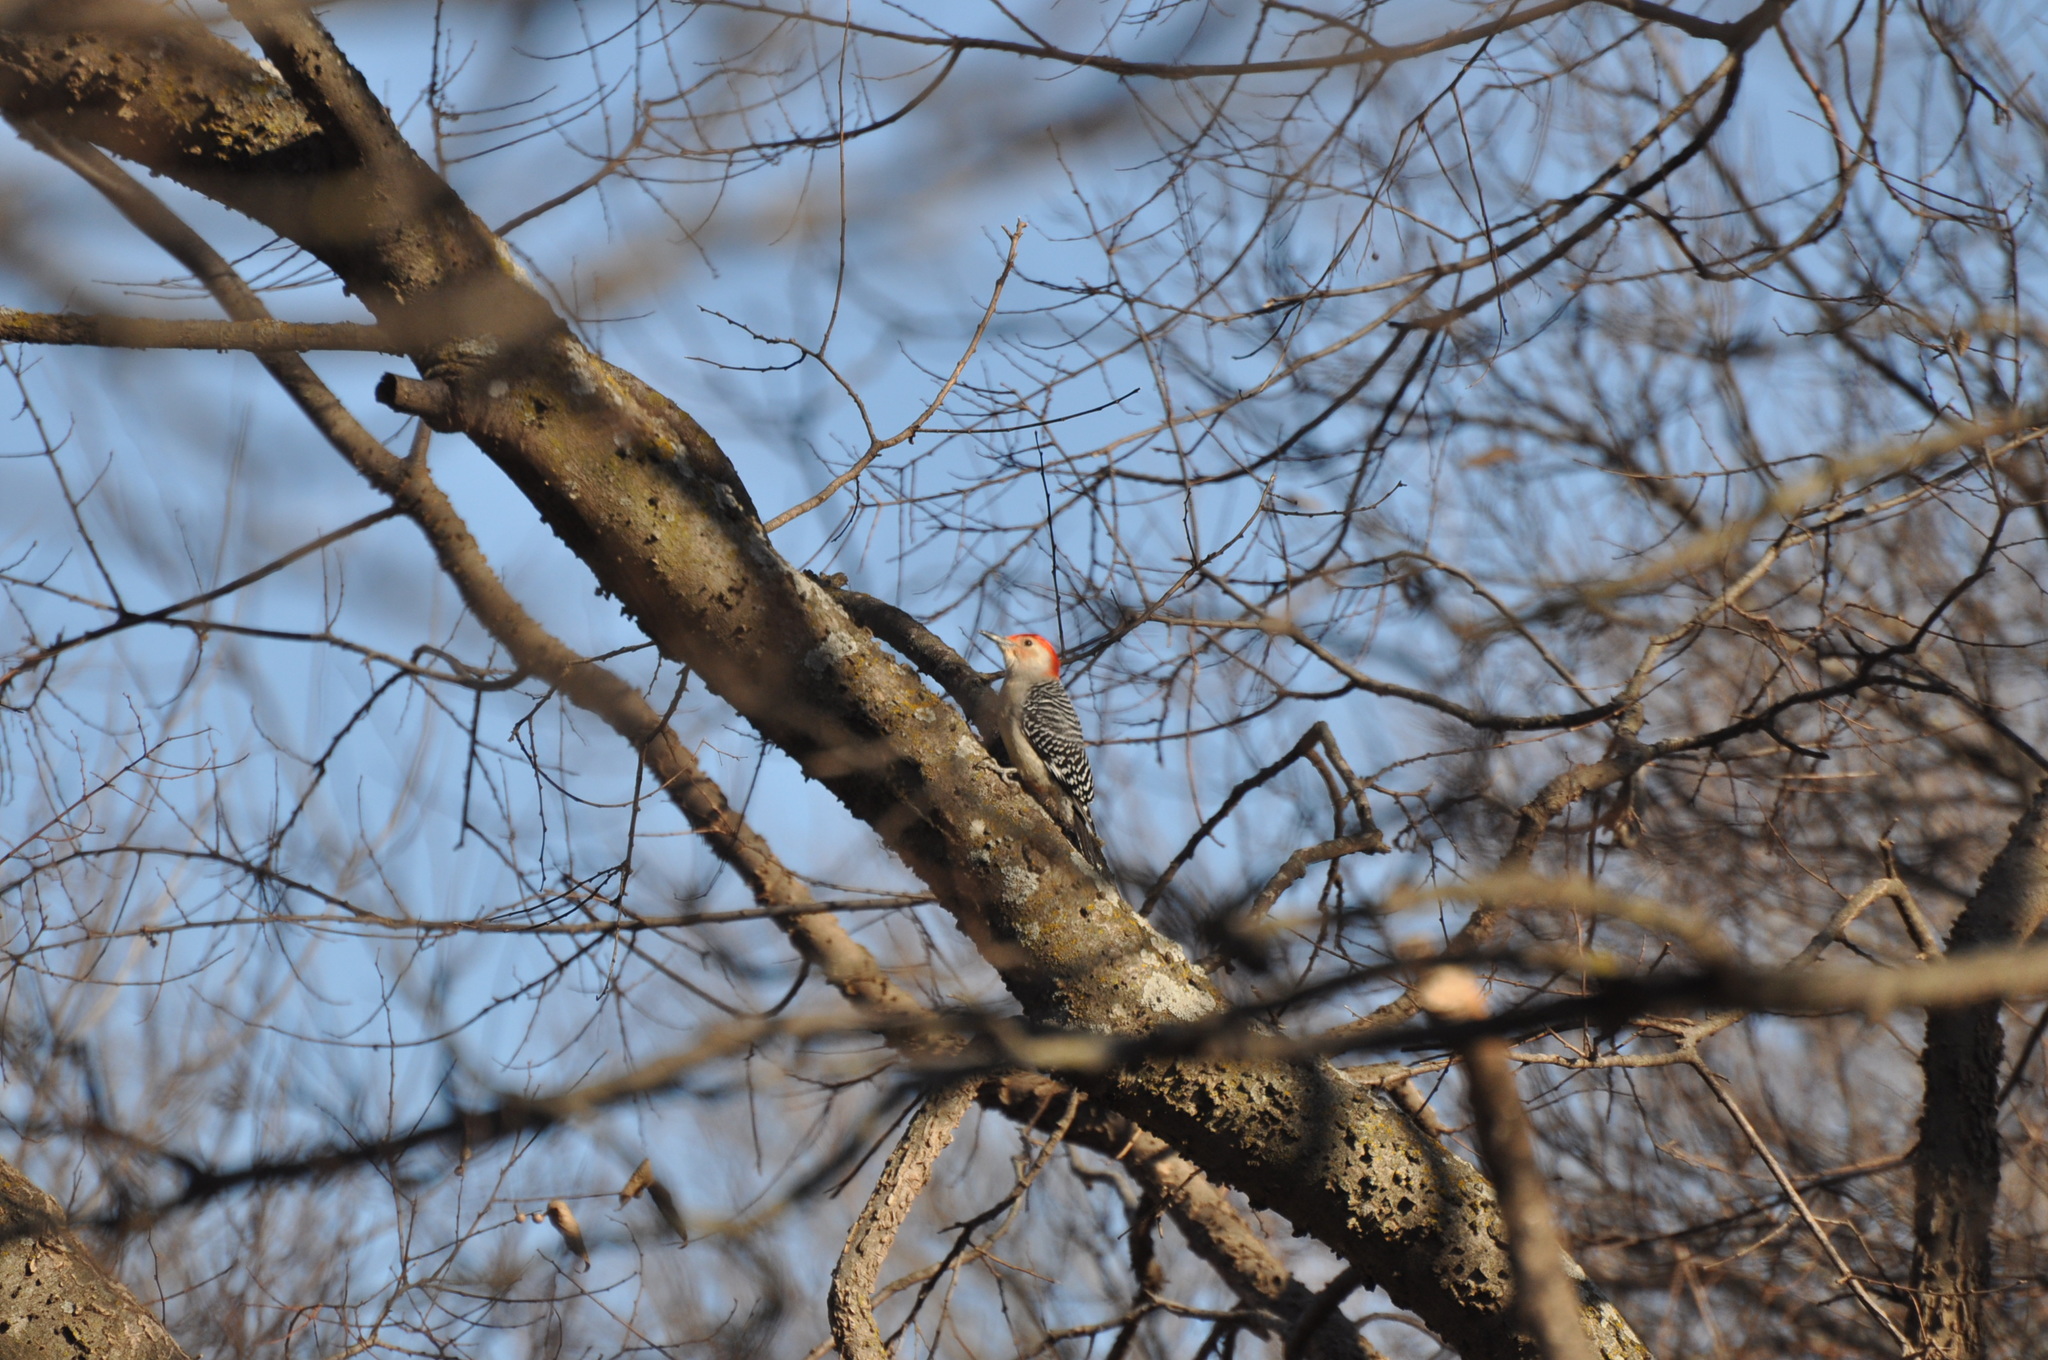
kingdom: Animalia
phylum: Chordata
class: Aves
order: Piciformes
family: Picidae
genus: Melanerpes
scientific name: Melanerpes carolinus
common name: Red-bellied woodpecker
